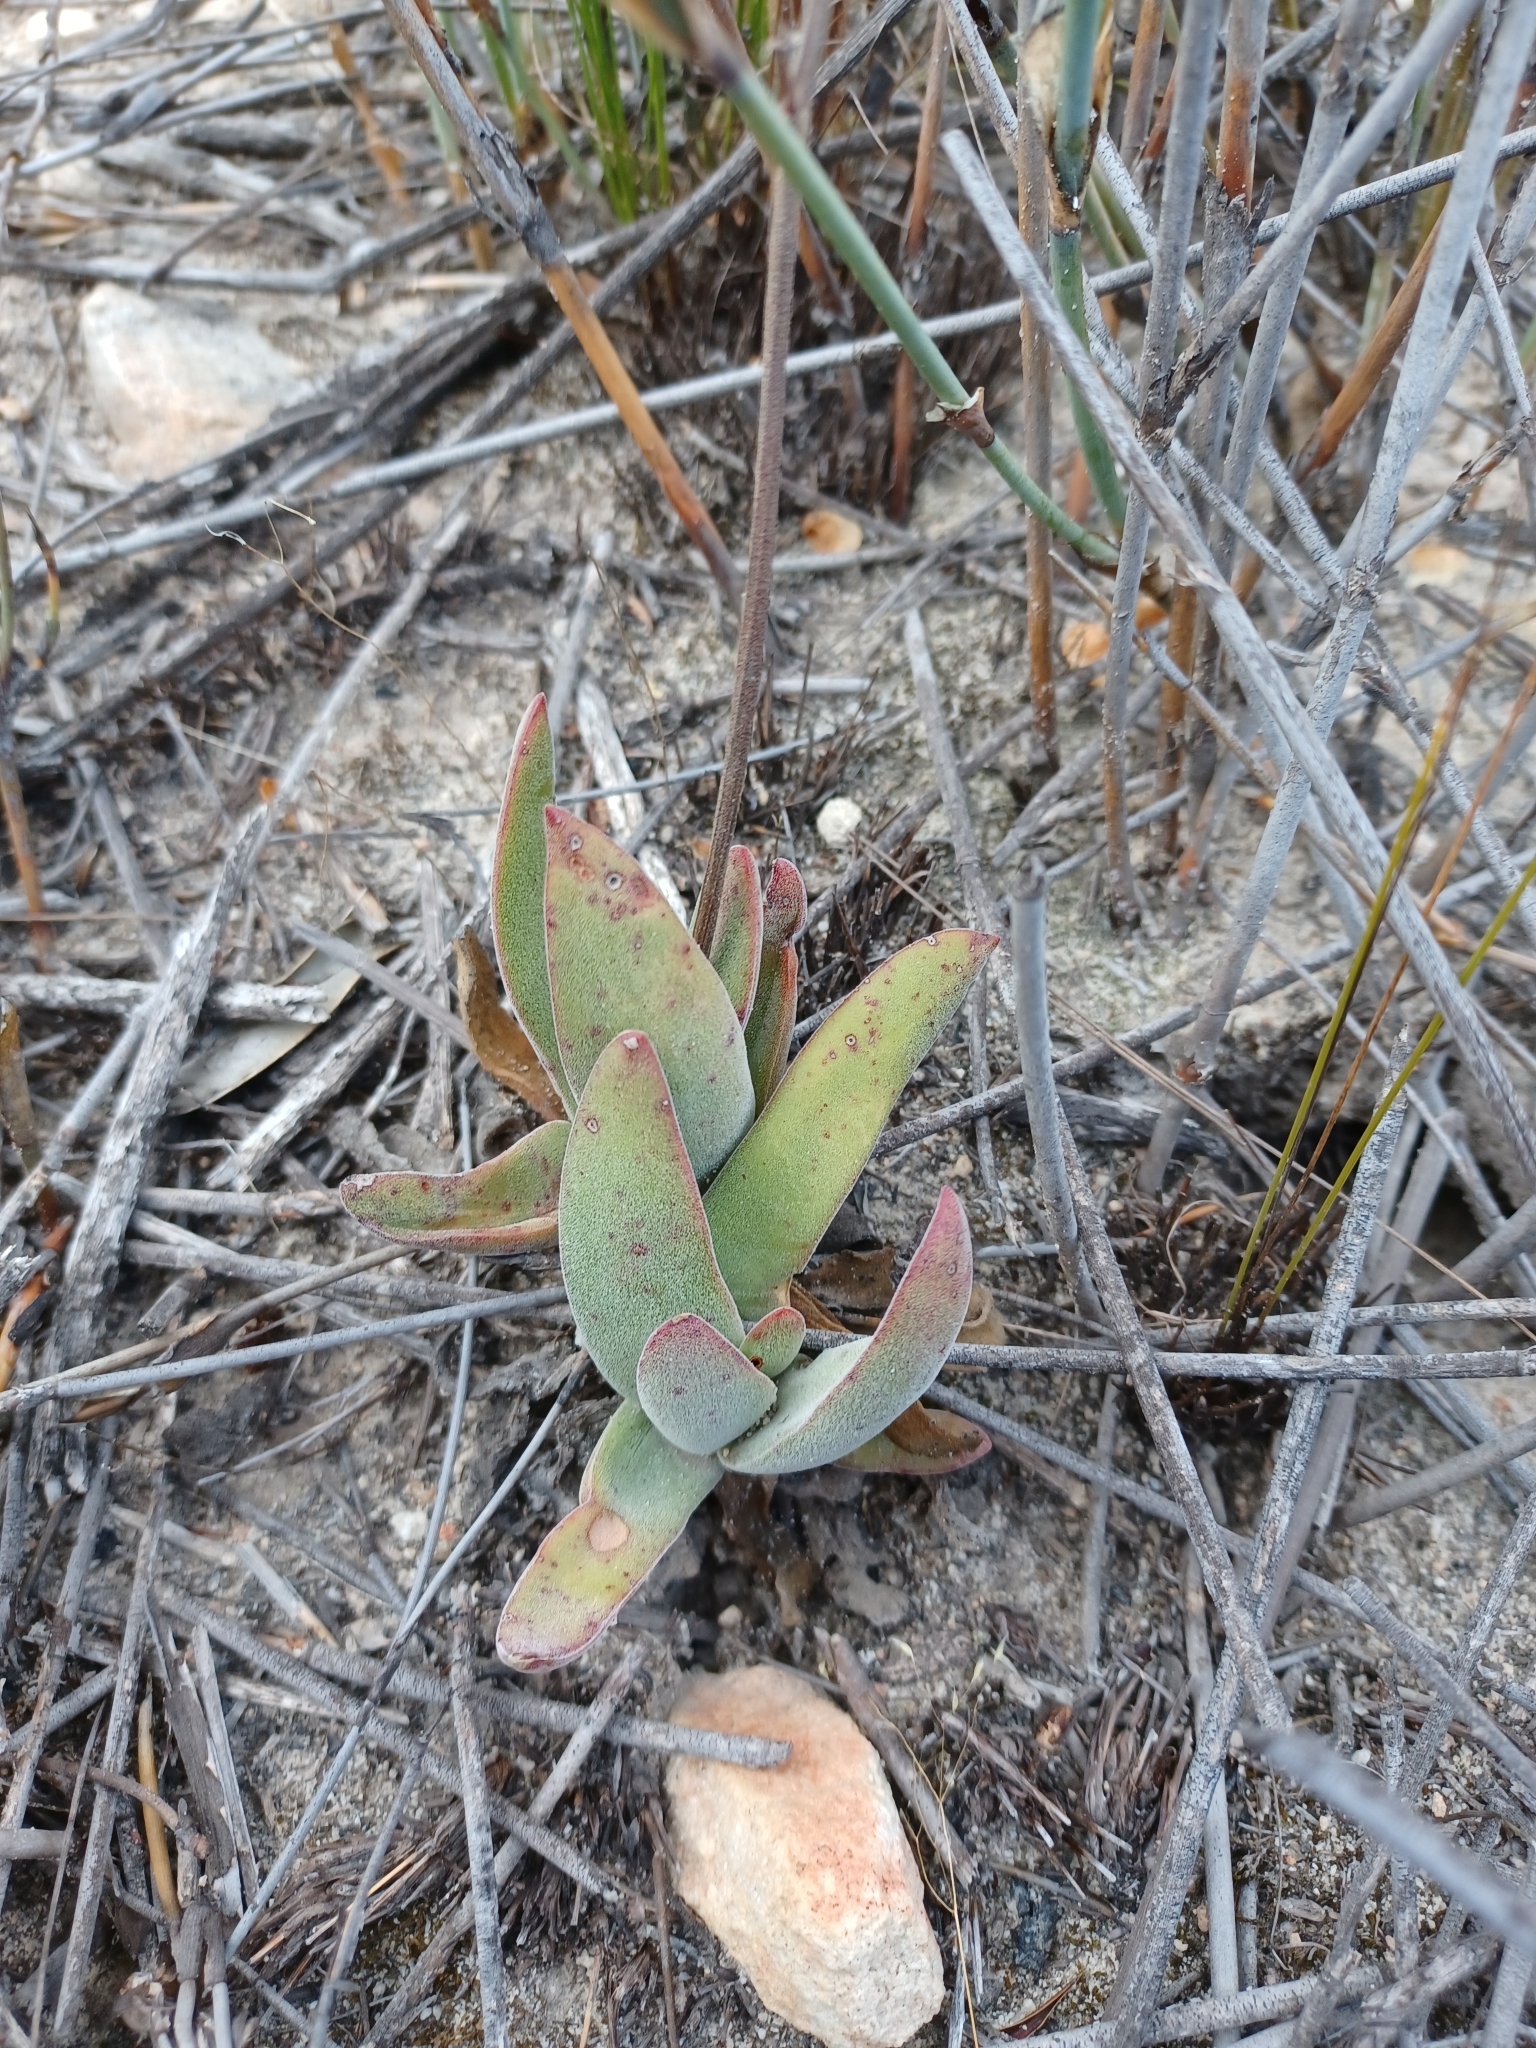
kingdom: Plantae
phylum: Tracheophyta
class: Magnoliopsida
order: Saxifragales
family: Crassulaceae
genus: Crassula
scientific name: Crassula nudicaulis
